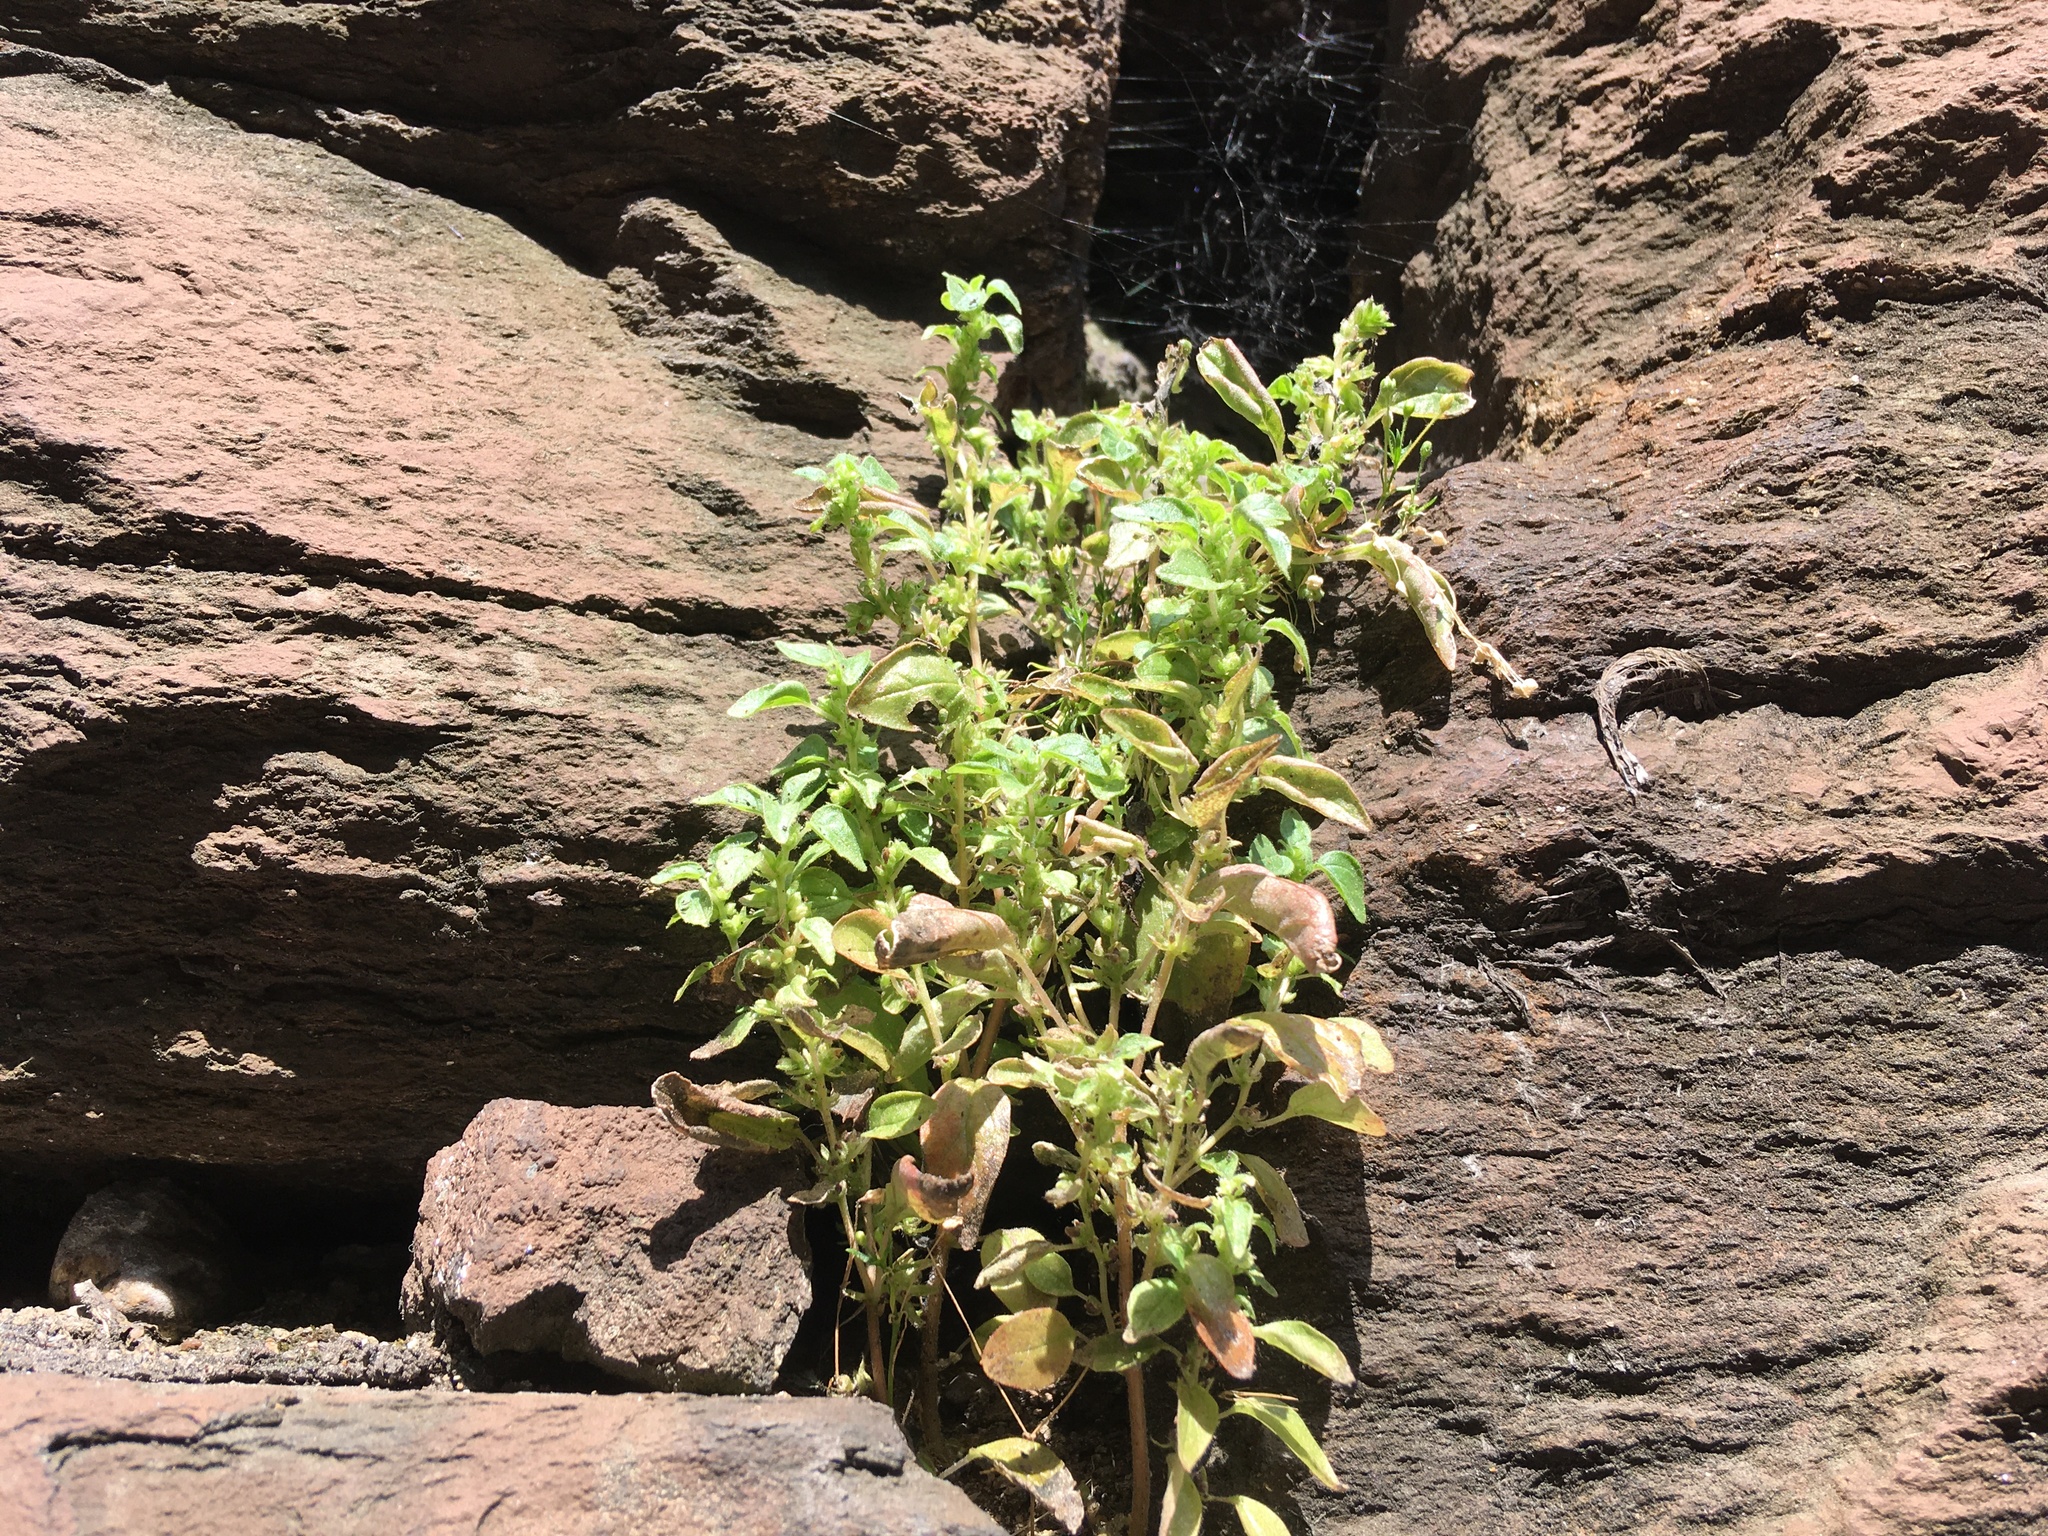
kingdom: Plantae
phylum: Tracheophyta
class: Magnoliopsida
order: Rosales
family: Urticaceae
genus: Parietaria
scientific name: Parietaria pensylvanica
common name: Pennsylvania pellitory
